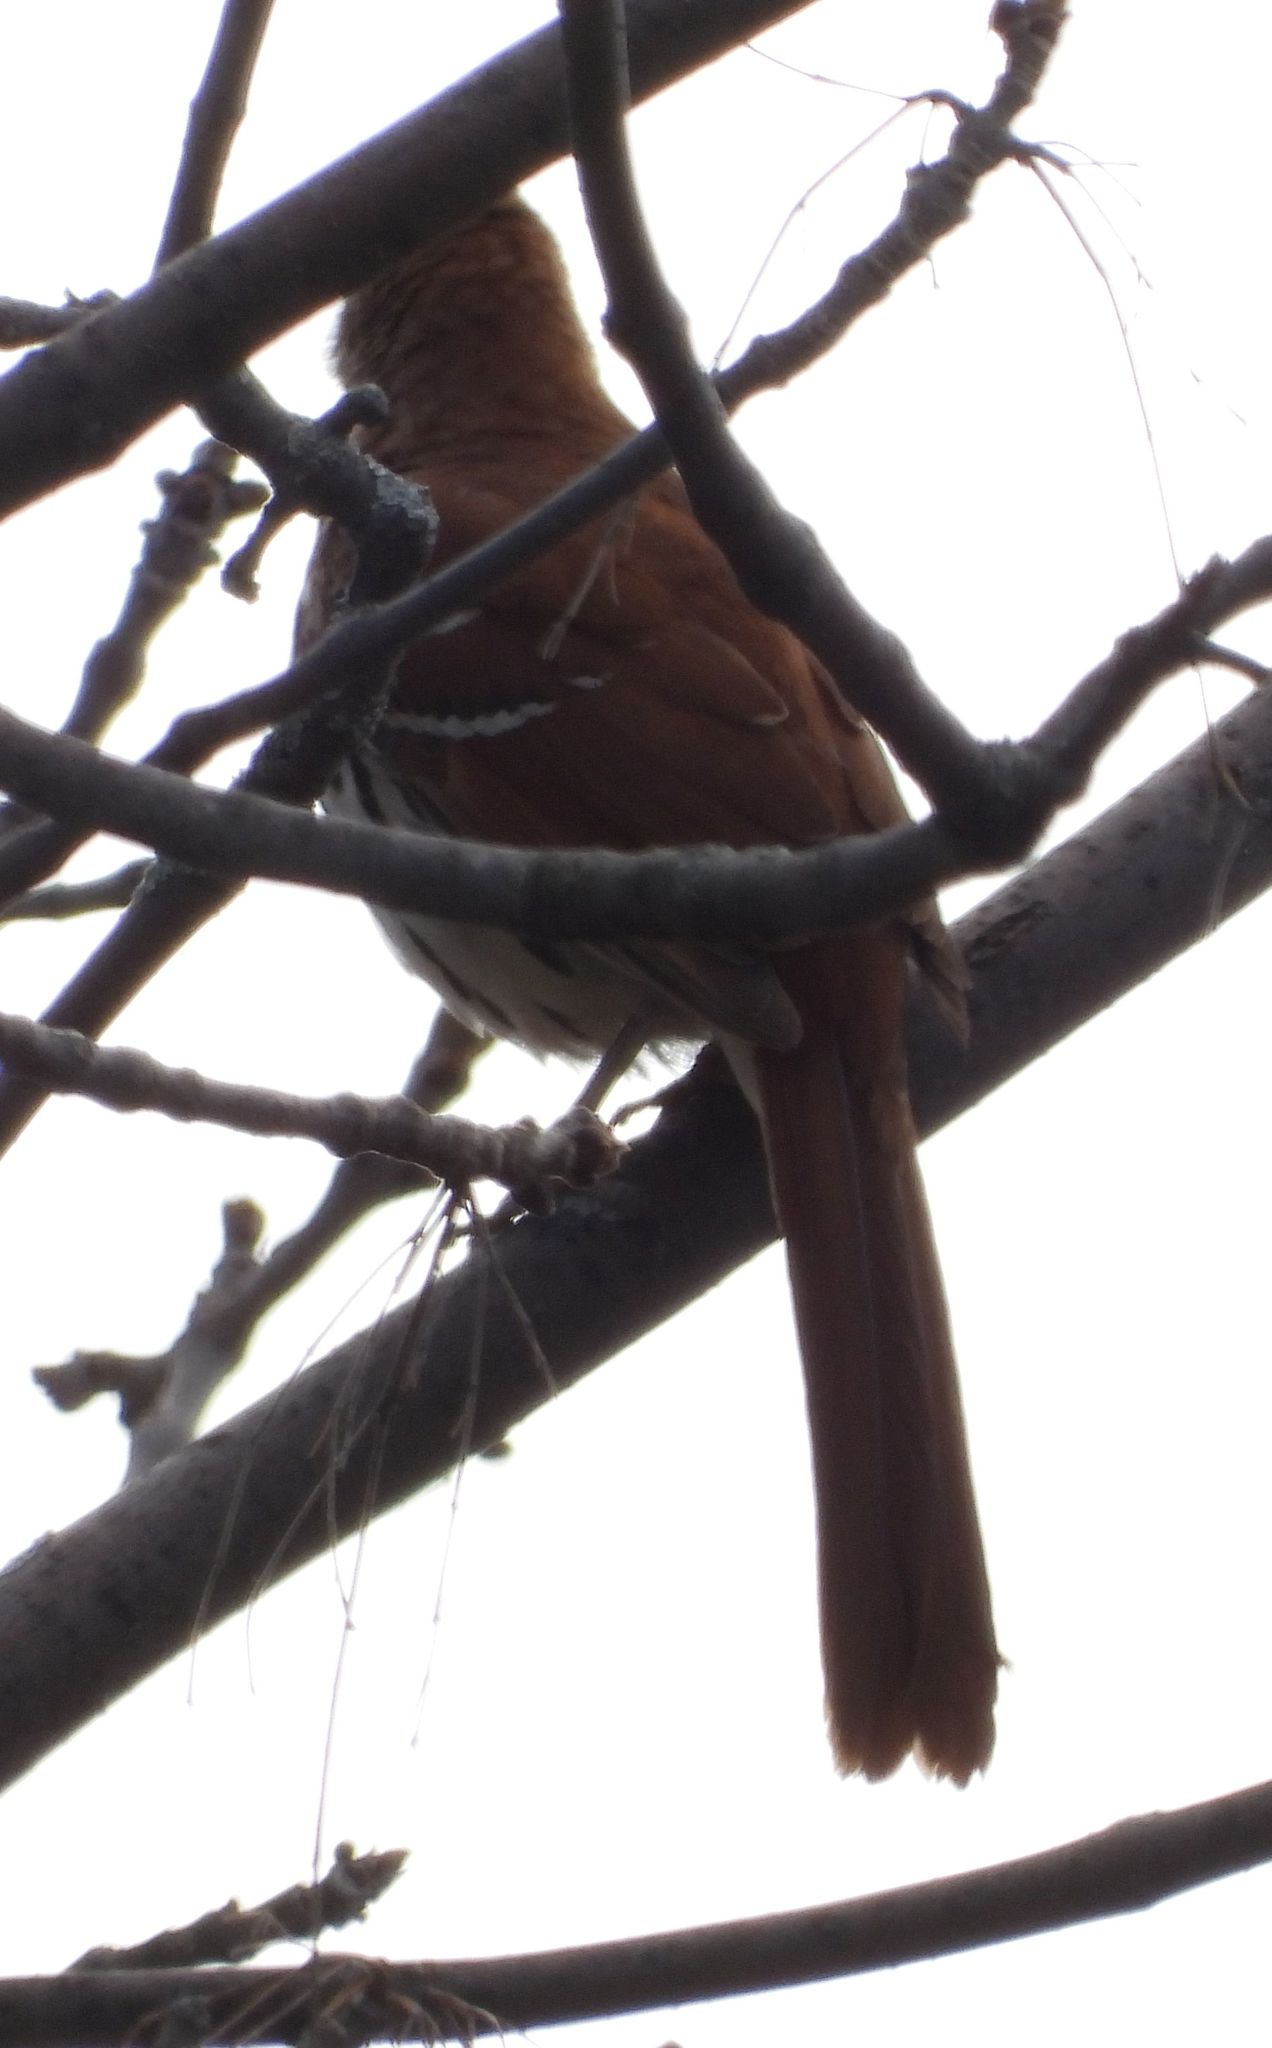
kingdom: Animalia
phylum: Chordata
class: Aves
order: Passeriformes
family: Mimidae
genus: Toxostoma
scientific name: Toxostoma rufum
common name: Brown thrasher
